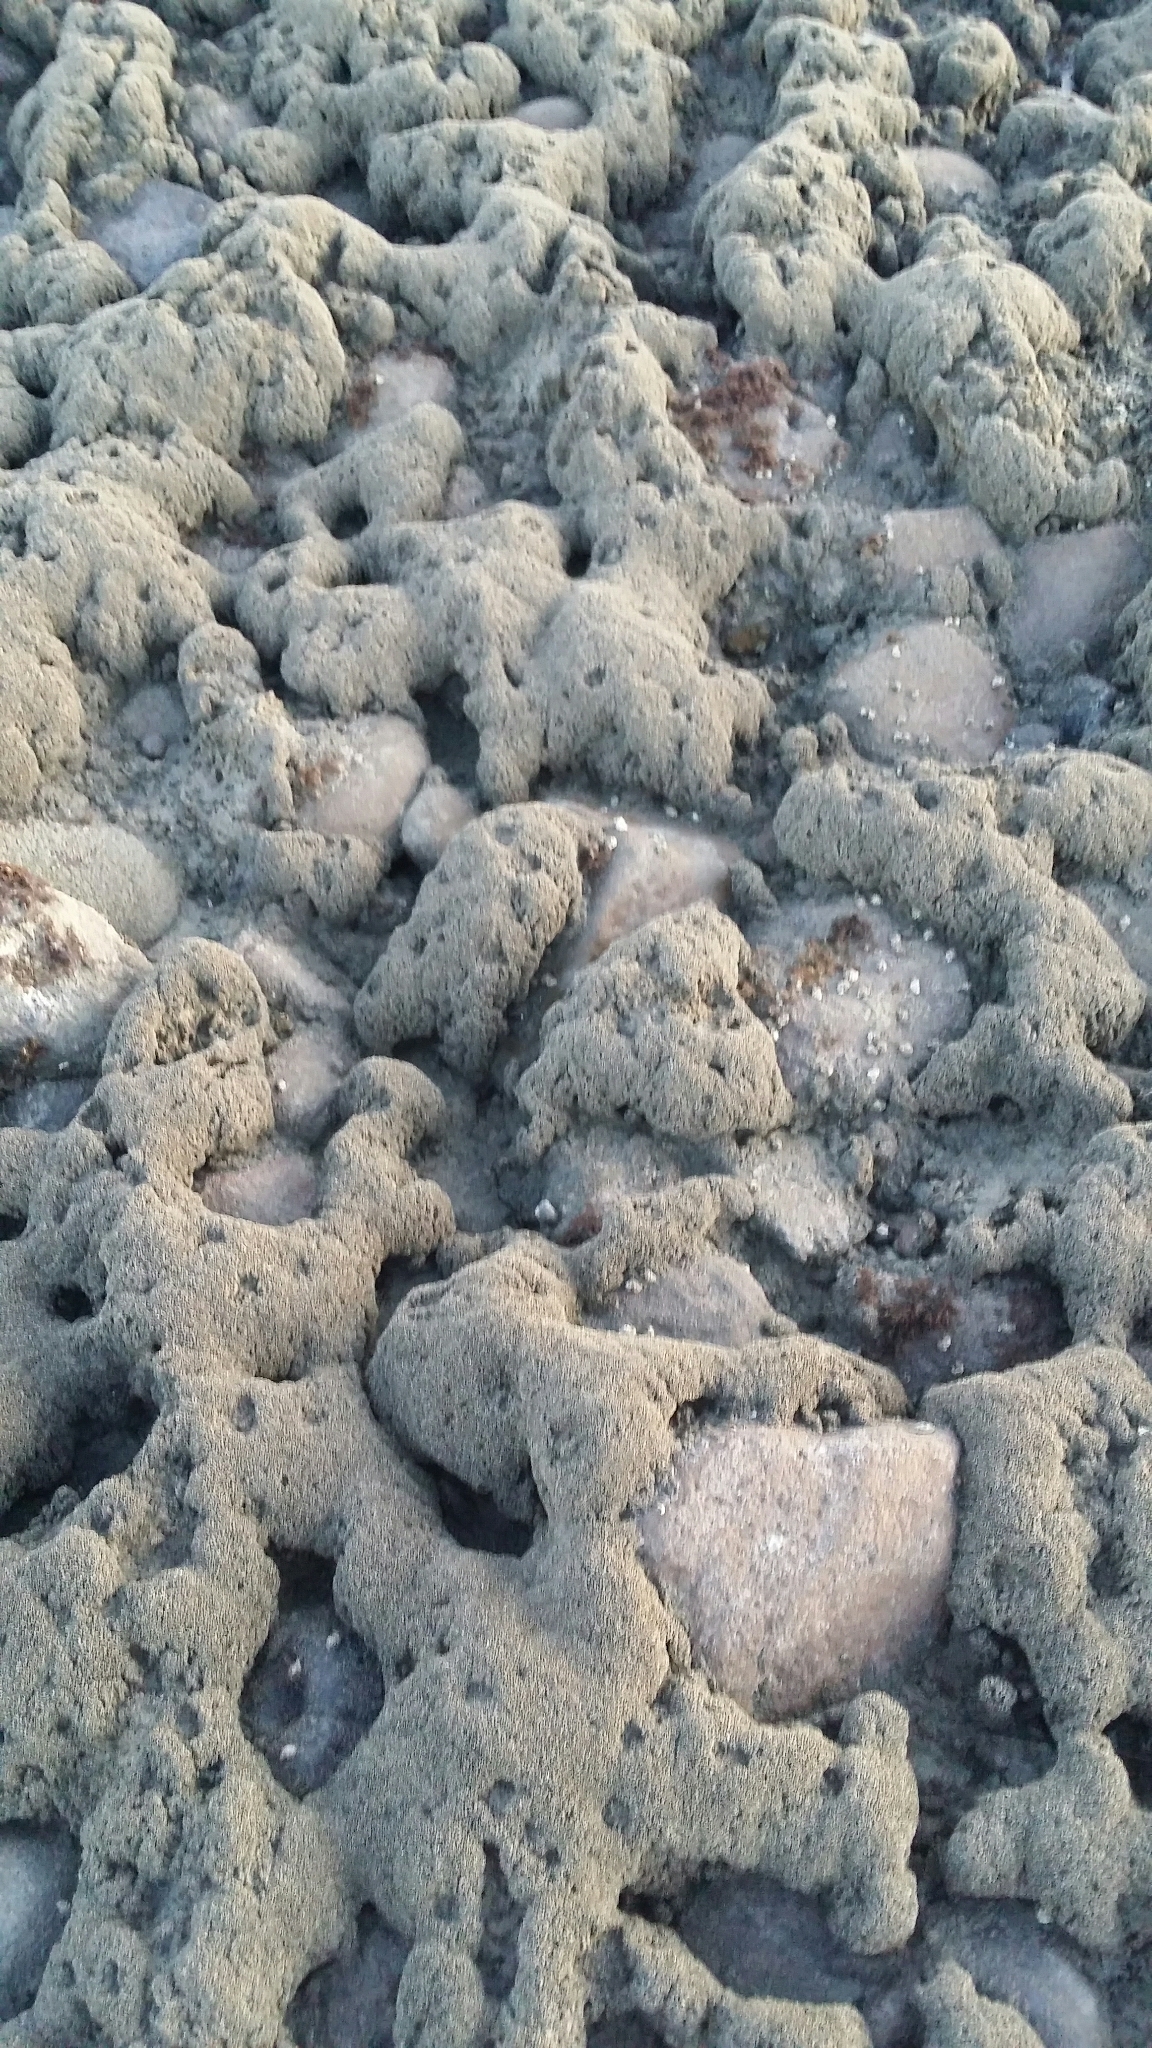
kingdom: Animalia
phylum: Annelida
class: Polychaeta
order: Sabellida
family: Sabellariidae
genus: Neosabellaria
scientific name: Neosabellaria kaiparaensis
